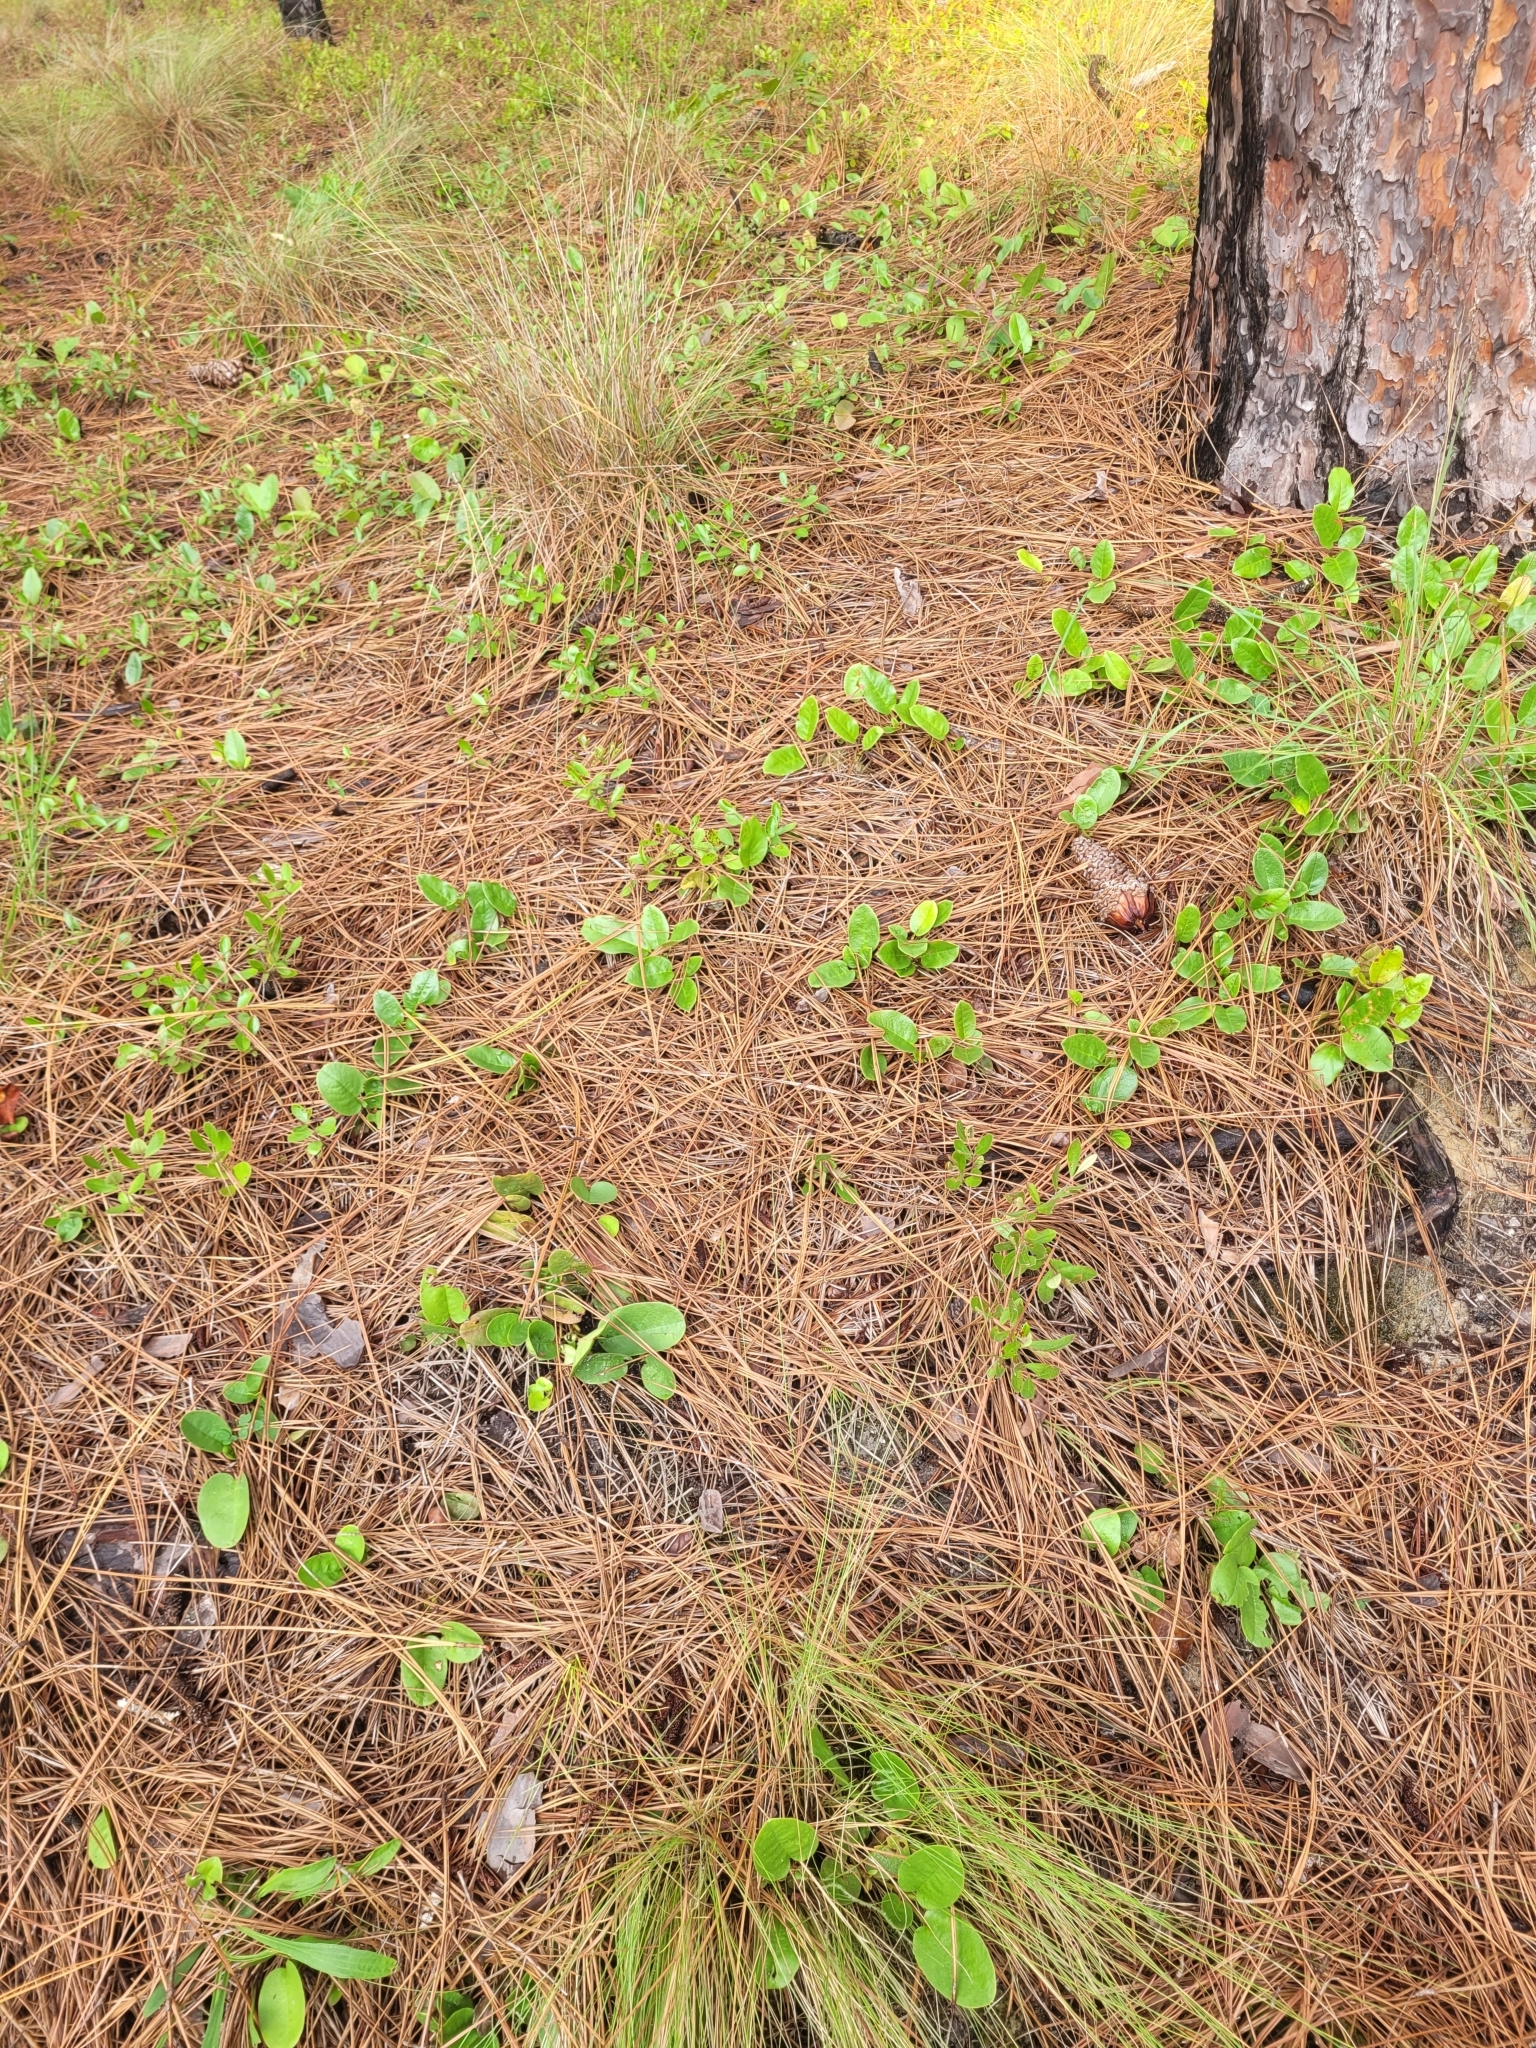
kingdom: Plantae
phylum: Tracheophyta
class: Magnoliopsida
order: Ericales
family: Ericaceae
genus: Epigaea
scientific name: Epigaea repens
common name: Gravelroot
